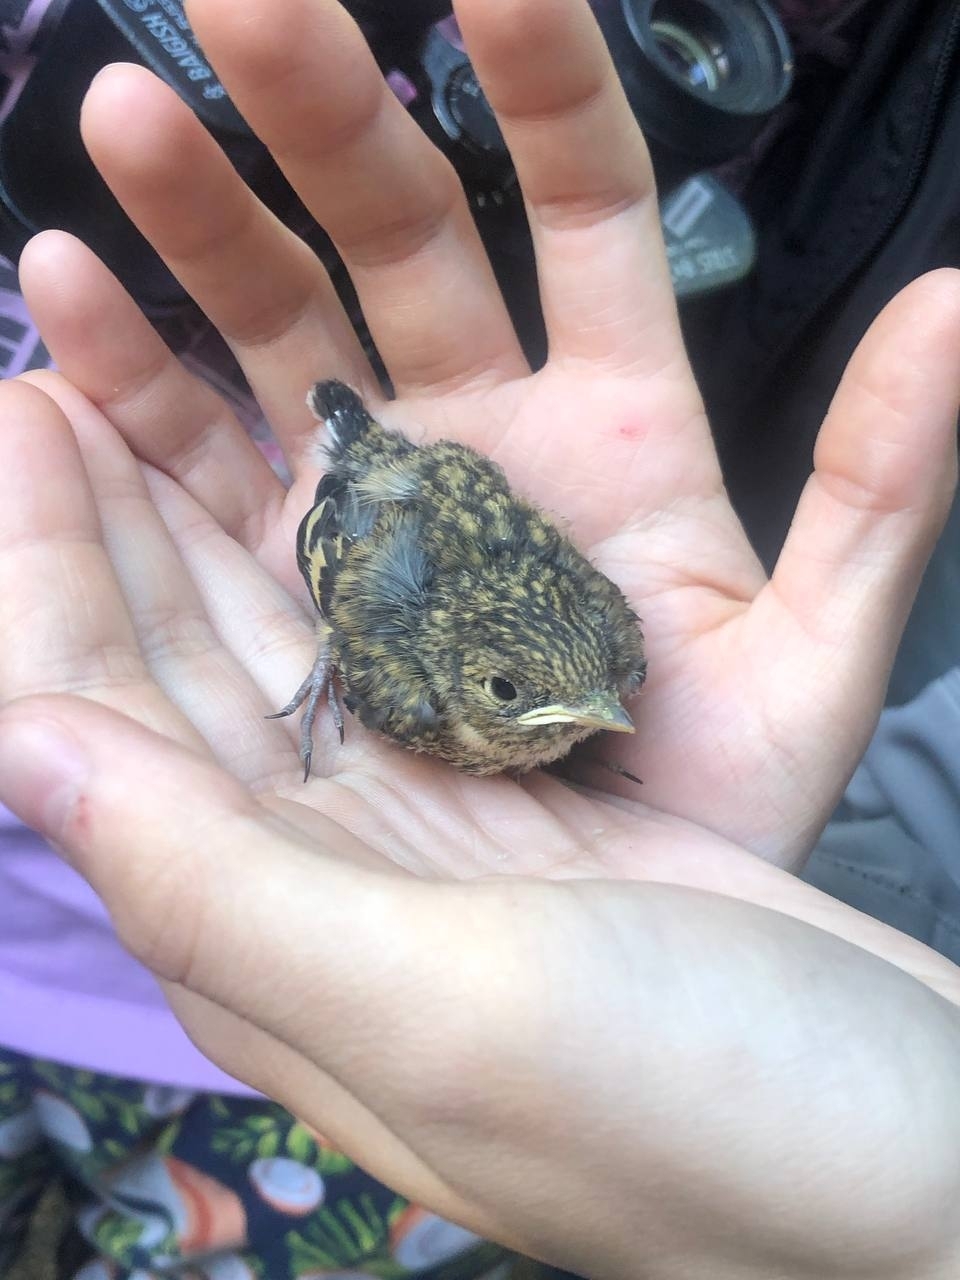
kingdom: Animalia
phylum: Chordata
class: Aves
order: Passeriformes
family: Muscicapidae
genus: Ficedula
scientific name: Ficedula hypoleuca
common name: European pied flycatcher
